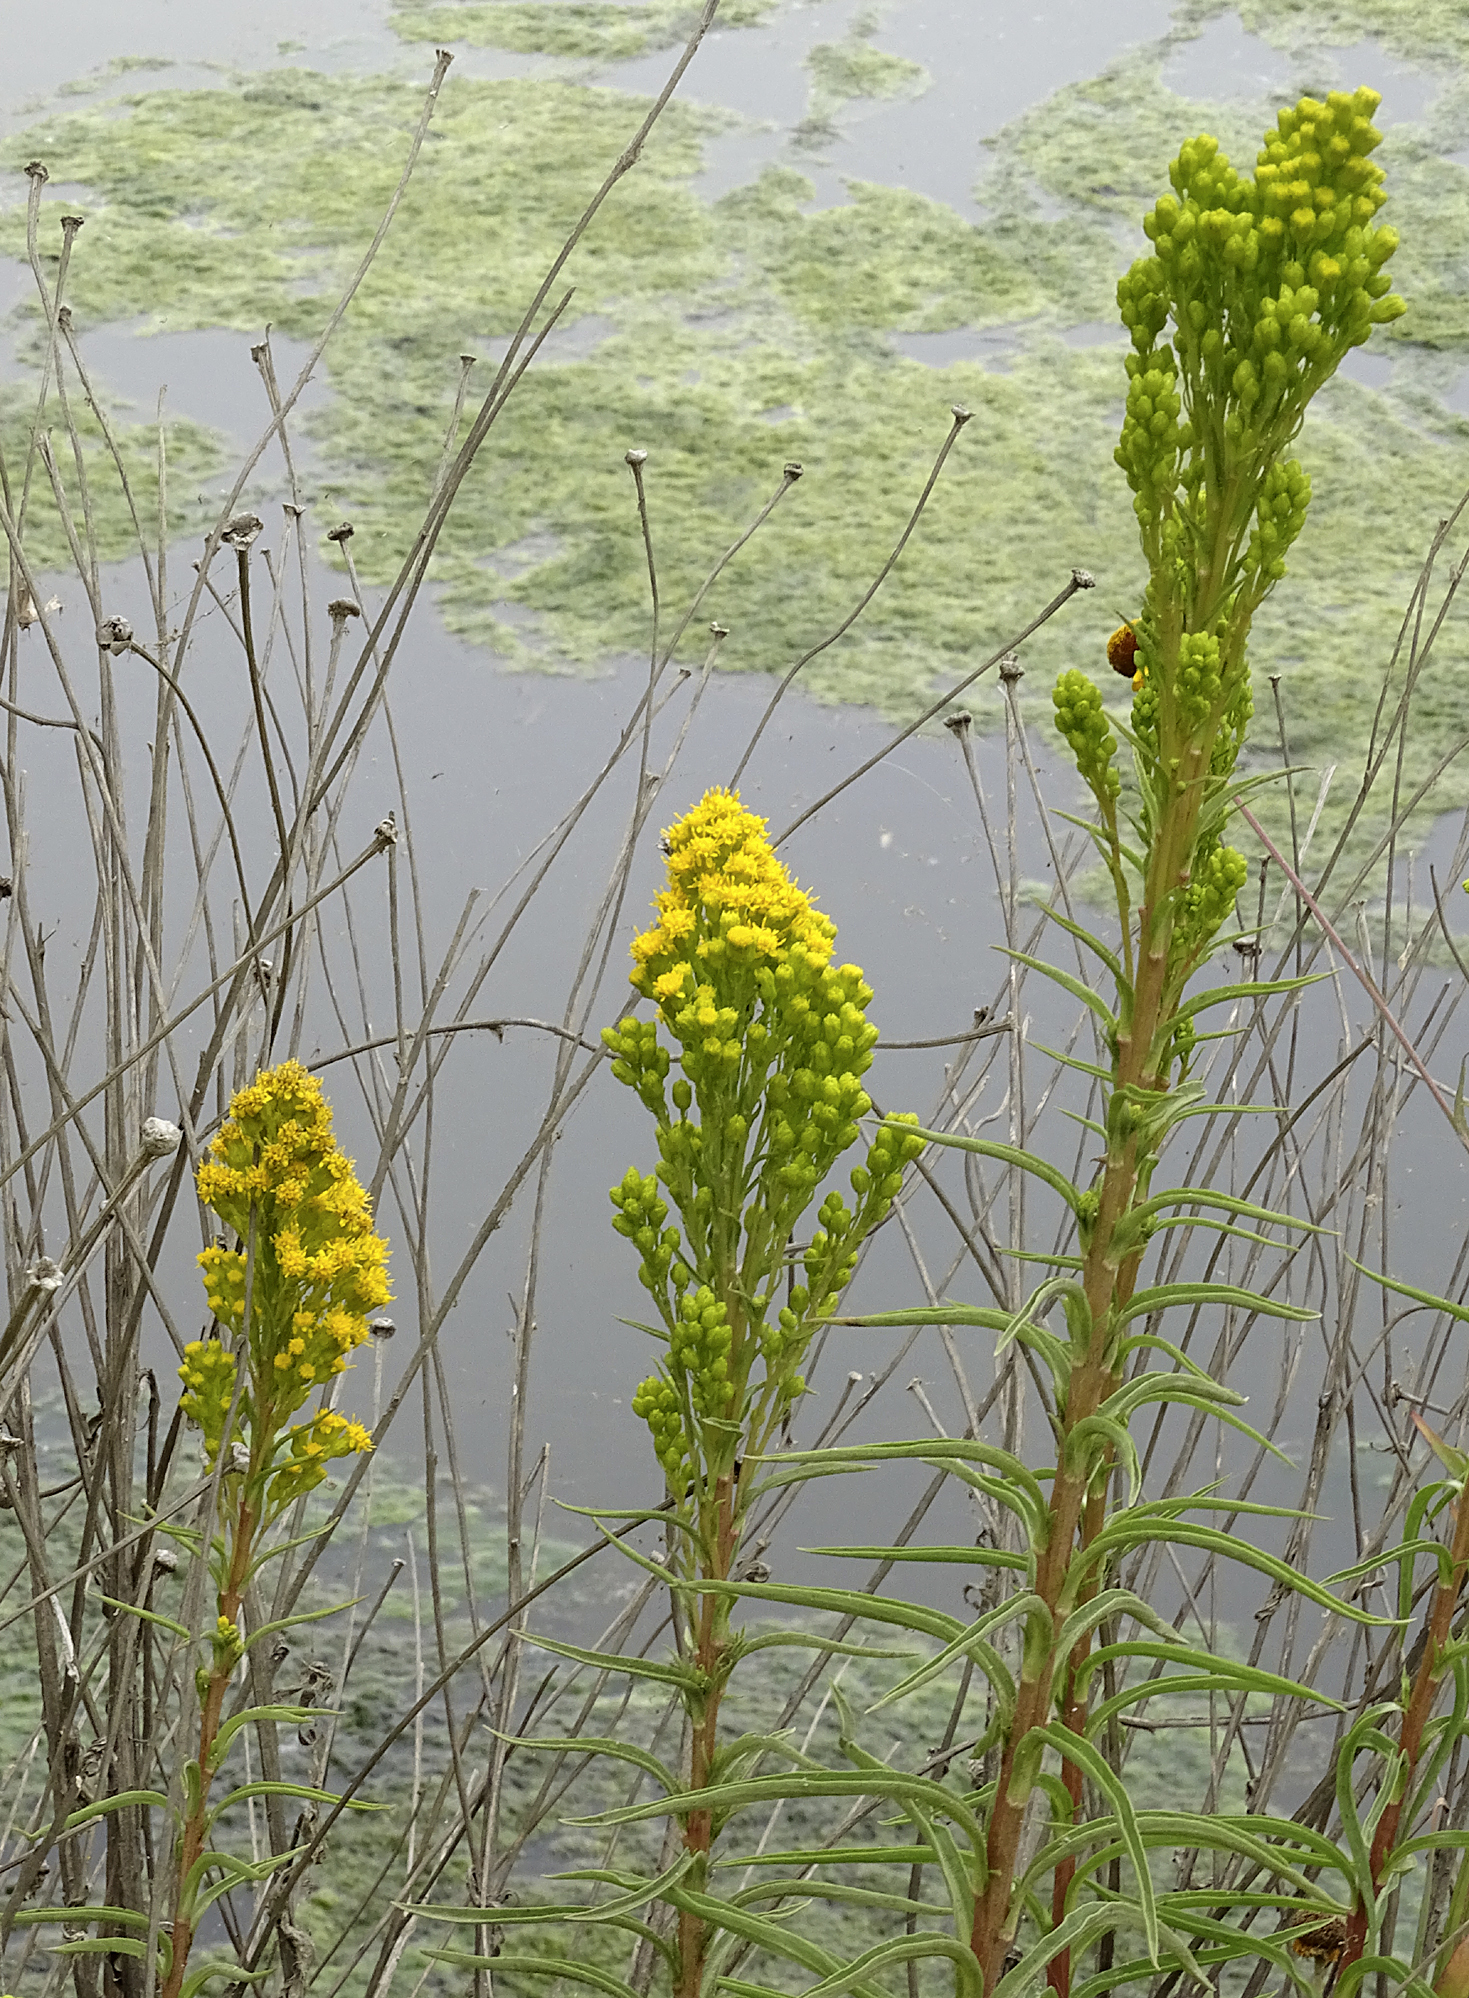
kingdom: Plantae
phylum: Tracheophyta
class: Magnoliopsida
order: Asterales
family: Asteraceae
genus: Solidago
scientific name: Solidago confinis
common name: Southern goldenrod
